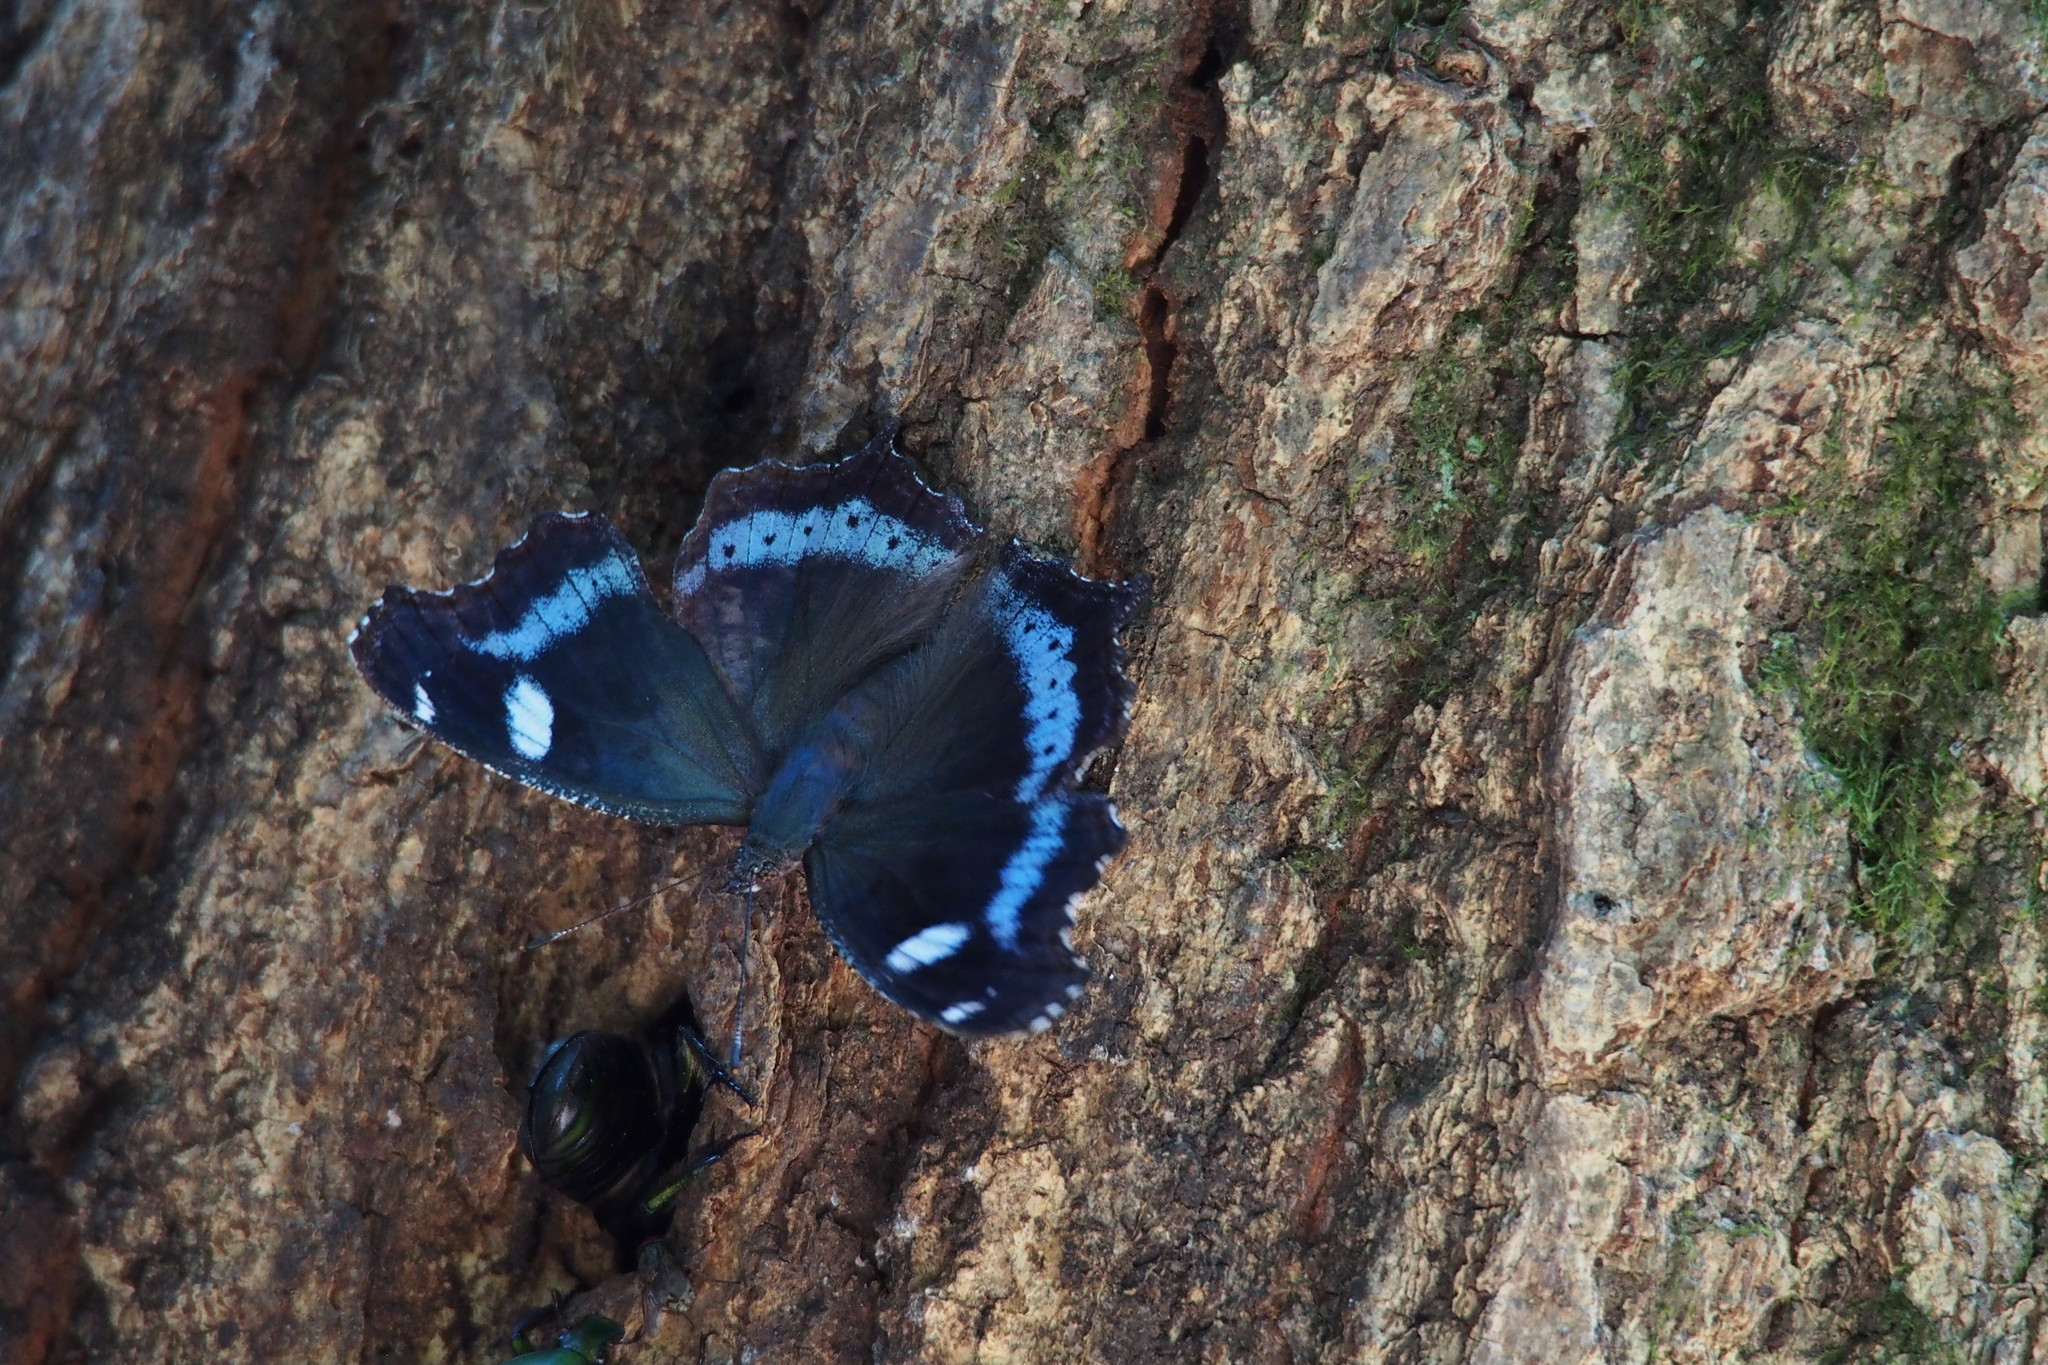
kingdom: Animalia
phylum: Arthropoda
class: Insecta
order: Lepidoptera
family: Nymphalidae
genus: Vanessa
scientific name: Vanessa Kaniska canace
